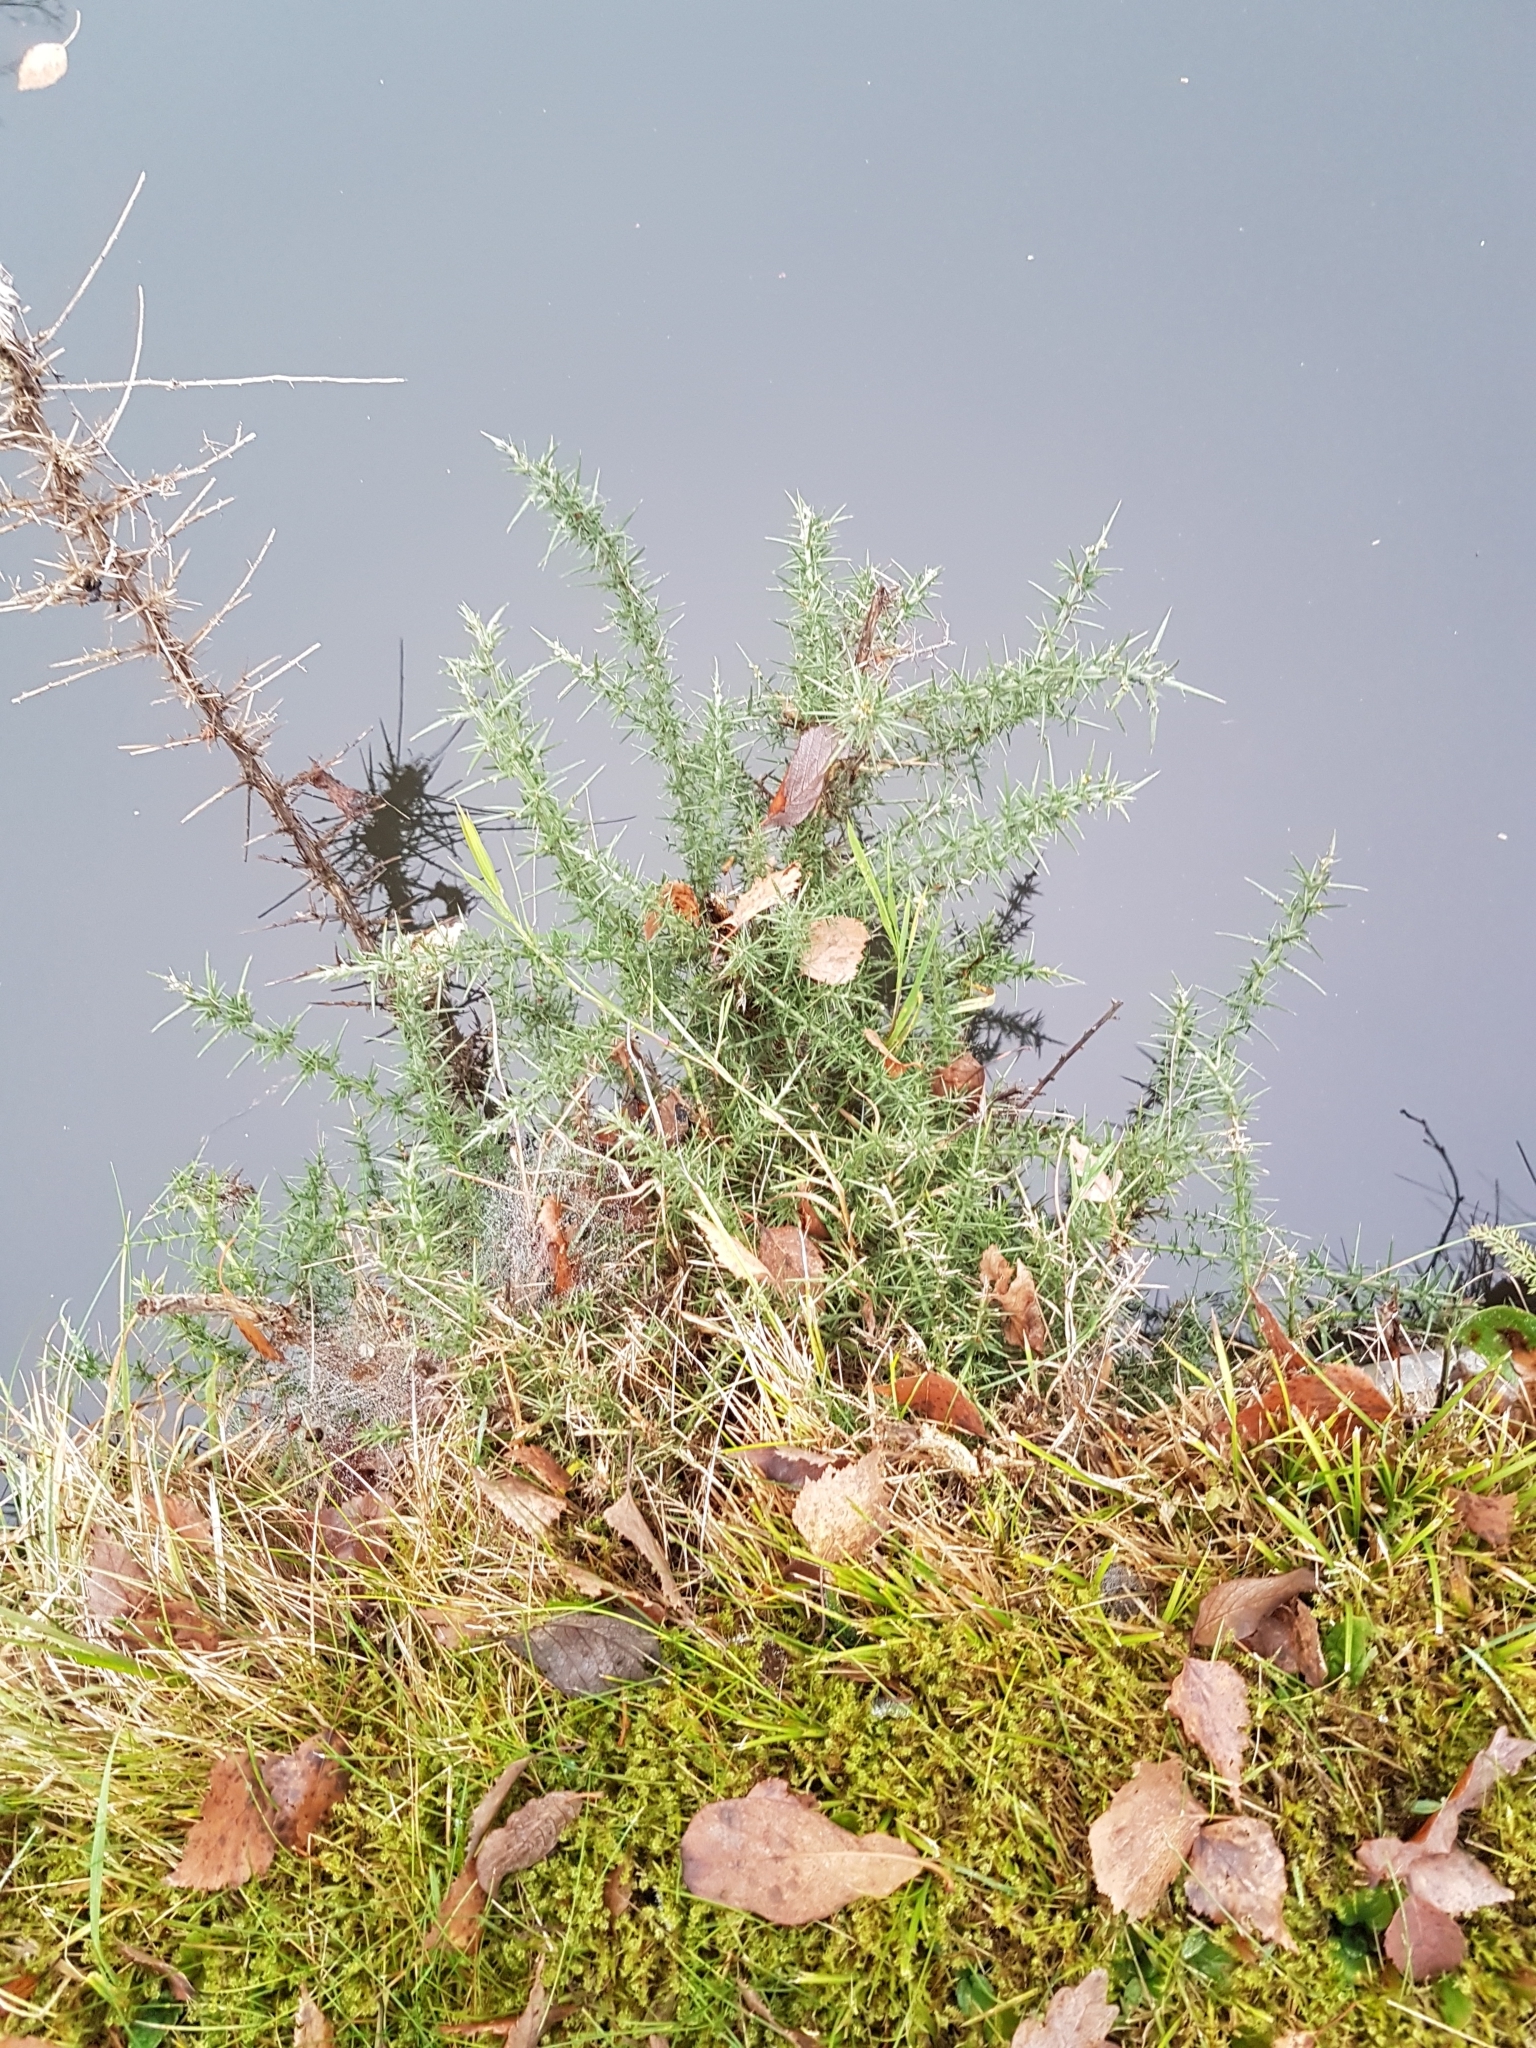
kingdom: Plantae
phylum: Tracheophyta
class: Magnoliopsida
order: Fabales
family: Fabaceae
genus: Ulex
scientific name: Ulex europaeus
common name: Common gorse
